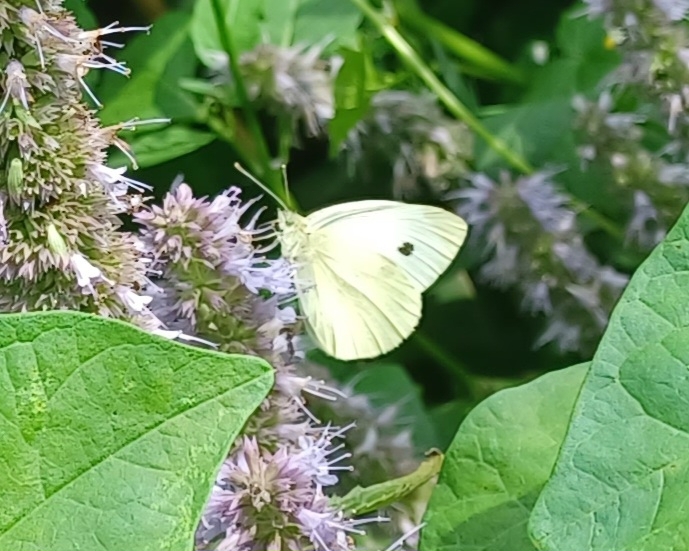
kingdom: Animalia
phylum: Arthropoda
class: Insecta
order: Lepidoptera
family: Pieridae
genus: Pieris
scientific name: Pieris rapae
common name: Small white
